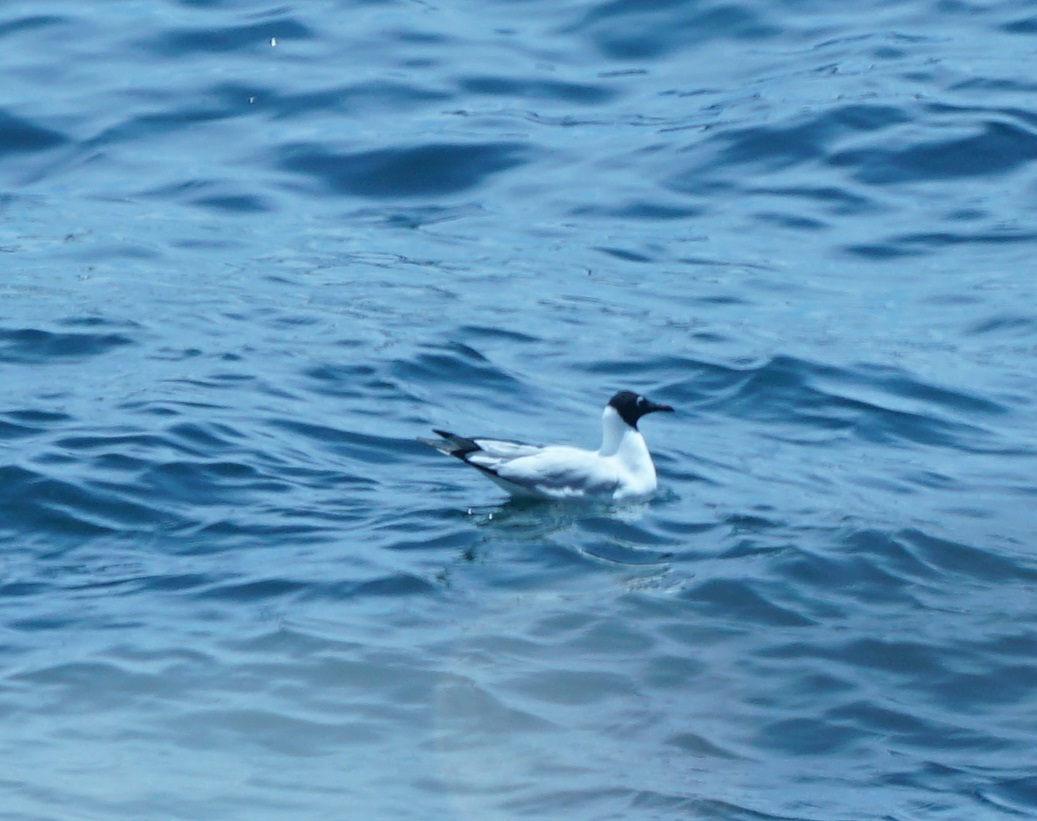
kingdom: Animalia
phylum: Chordata
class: Aves
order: Charadriiformes
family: Laridae
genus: Chroicocephalus
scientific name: Chroicocephalus serranus
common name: Andean gull
